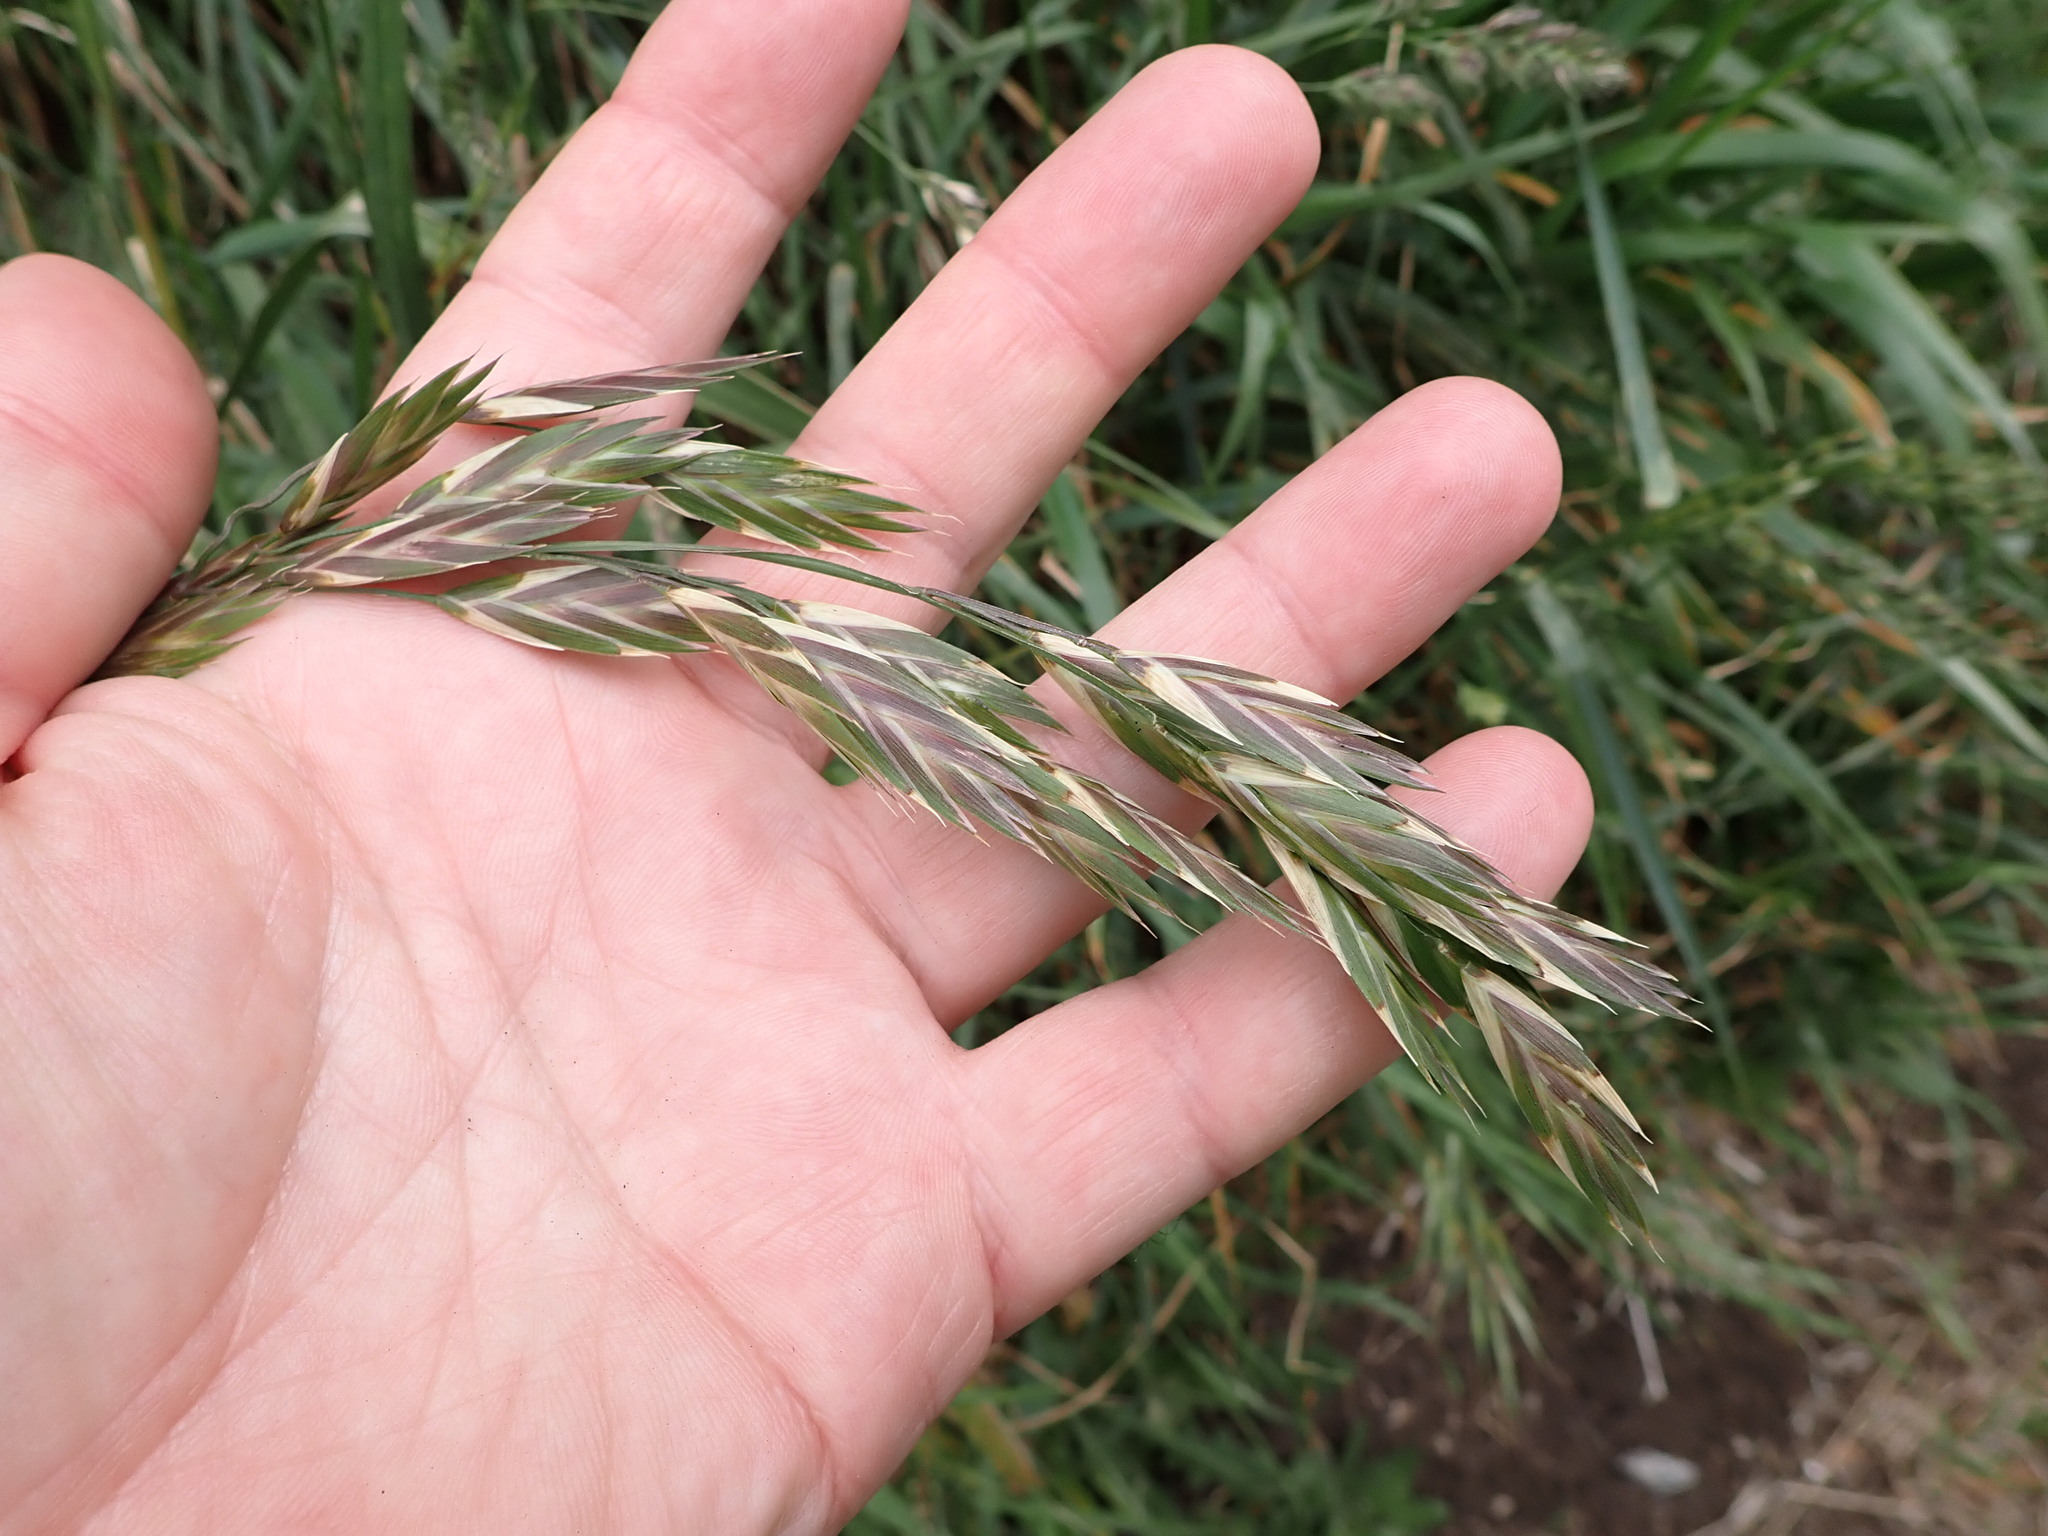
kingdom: Plantae
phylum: Tracheophyta
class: Liliopsida
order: Poales
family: Poaceae
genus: Bromus
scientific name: Bromus catharticus
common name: Rescuegrass
